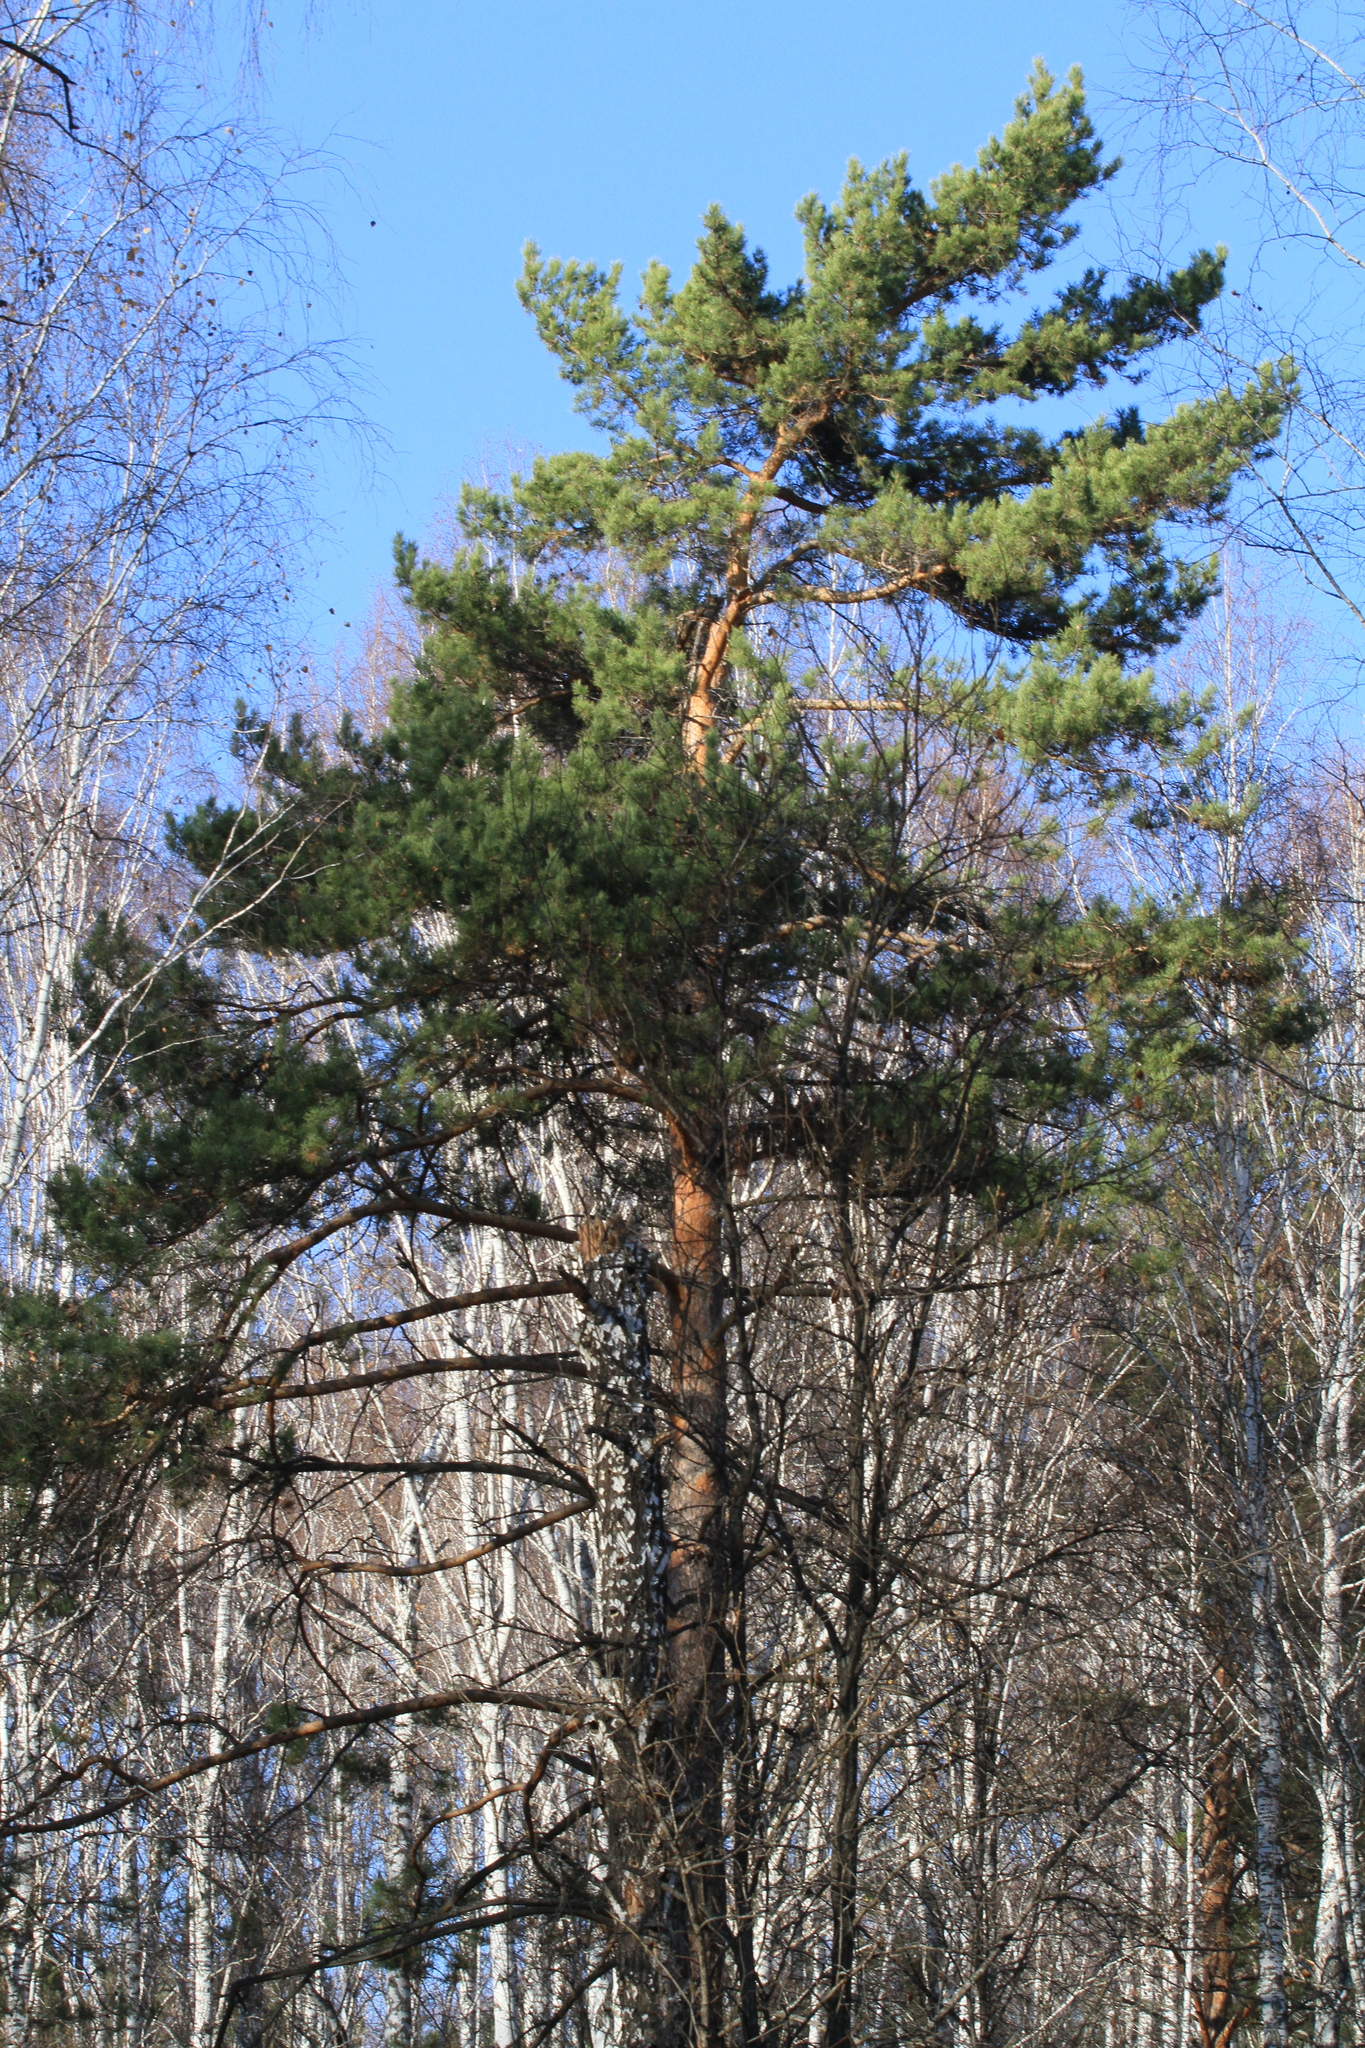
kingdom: Plantae
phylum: Tracheophyta
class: Pinopsida
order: Pinales
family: Pinaceae
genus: Pinus
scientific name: Pinus sylvestris
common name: Scots pine
